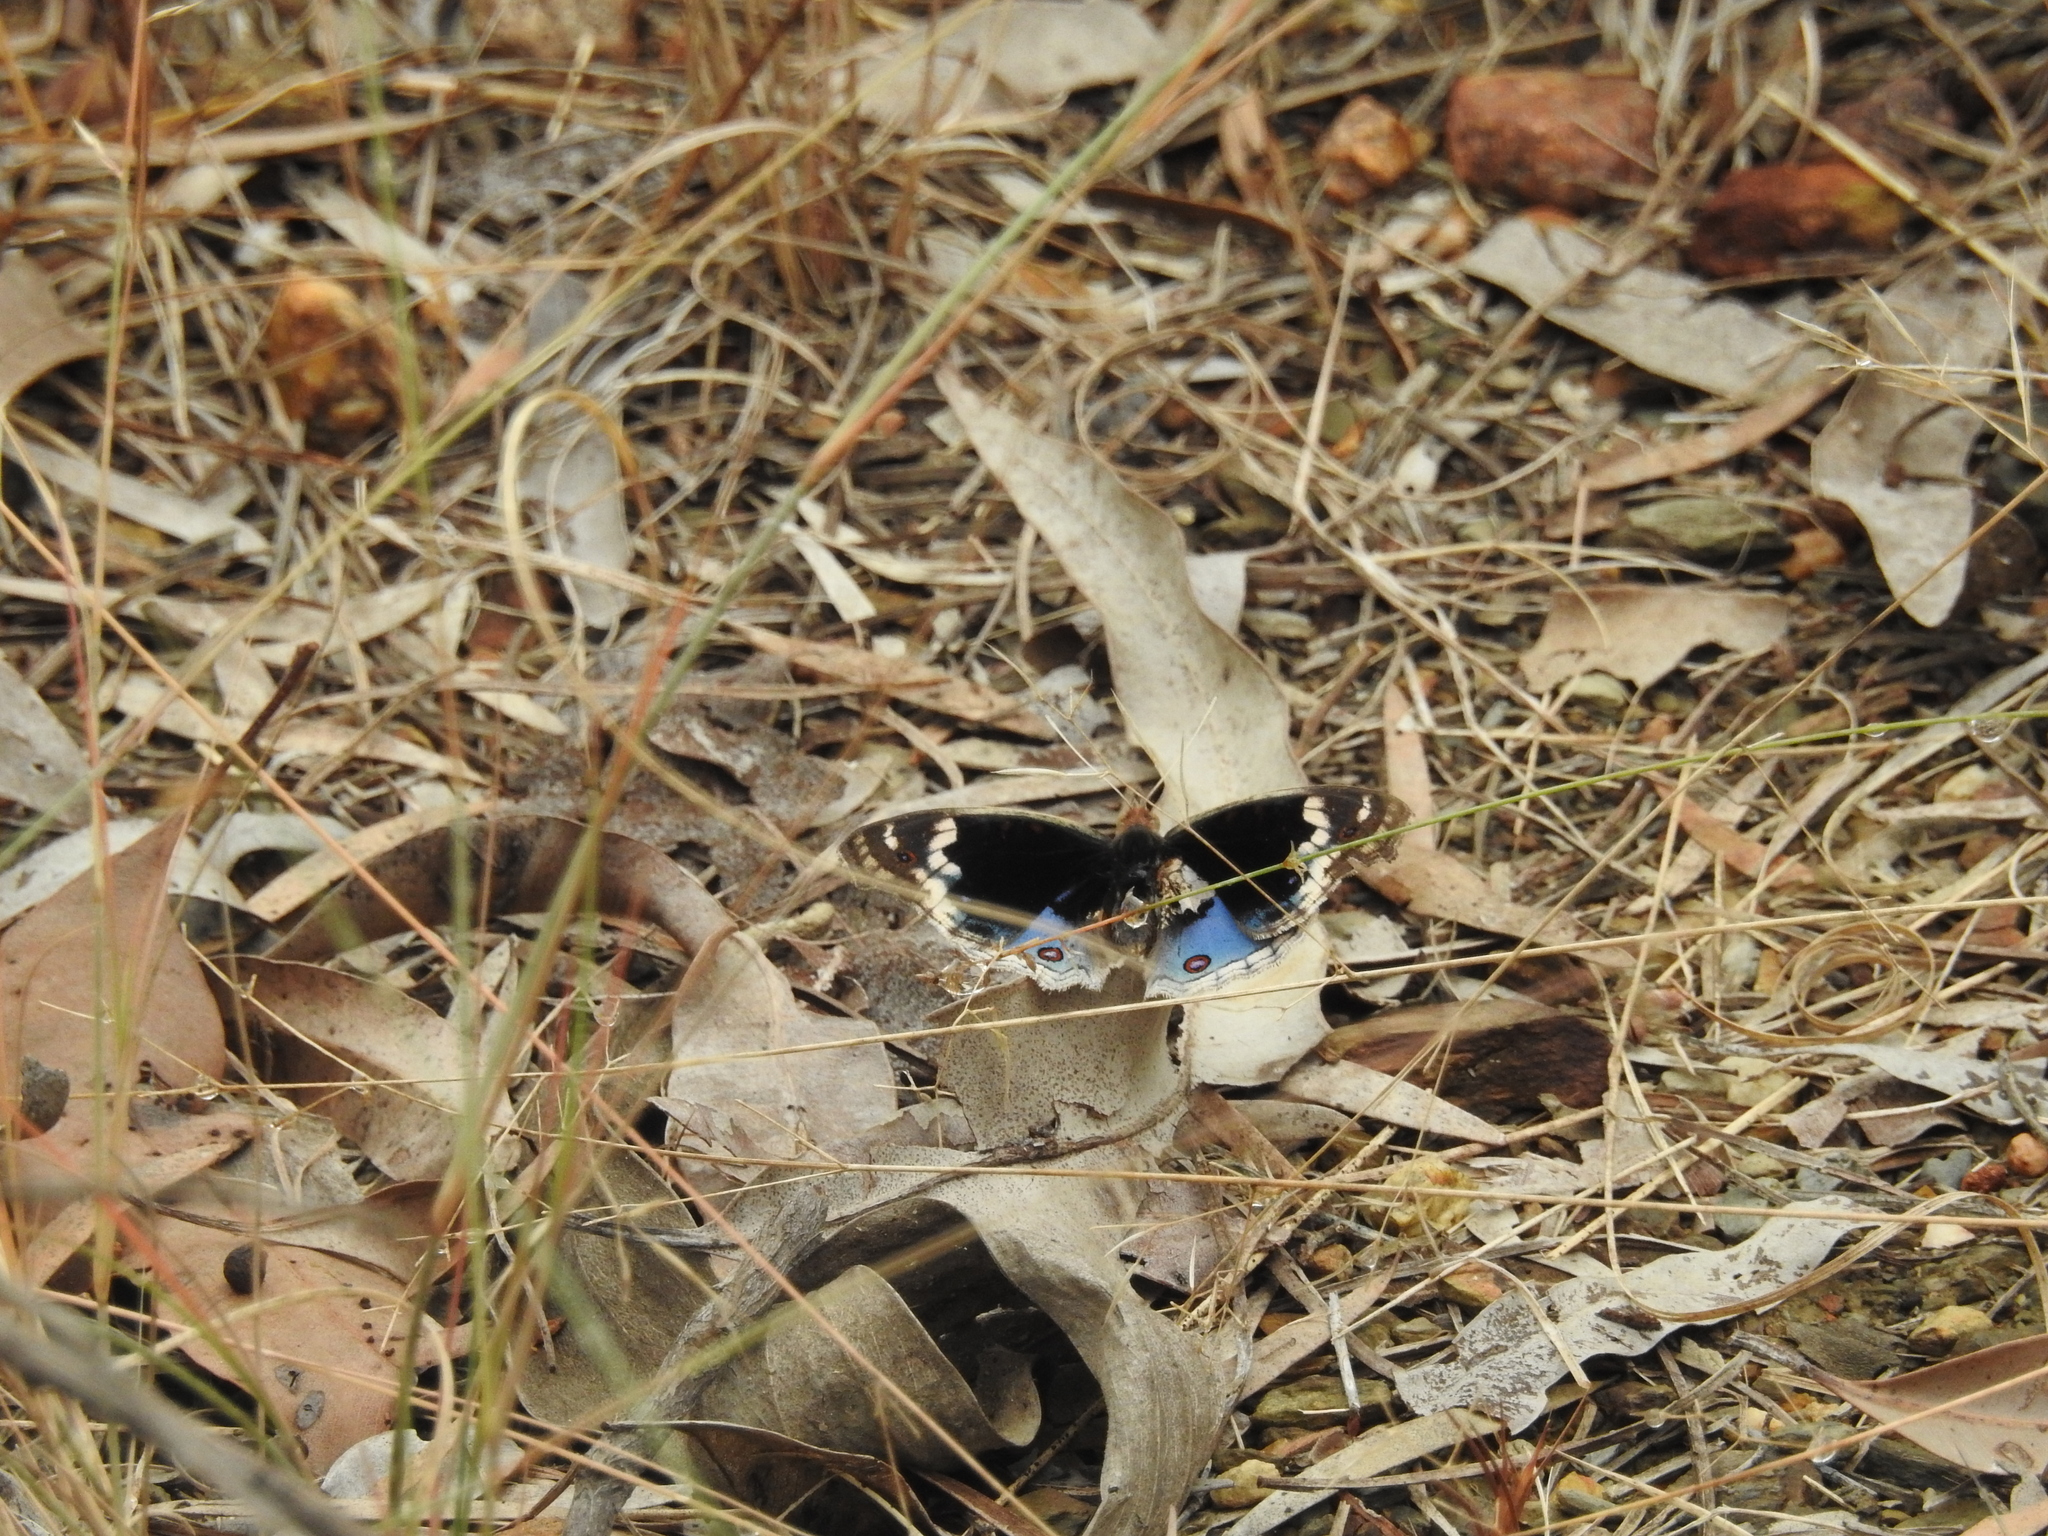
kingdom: Animalia
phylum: Arthropoda
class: Insecta
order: Lepidoptera
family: Nymphalidae
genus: Junonia
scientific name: Junonia orithya
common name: Blue pansy
